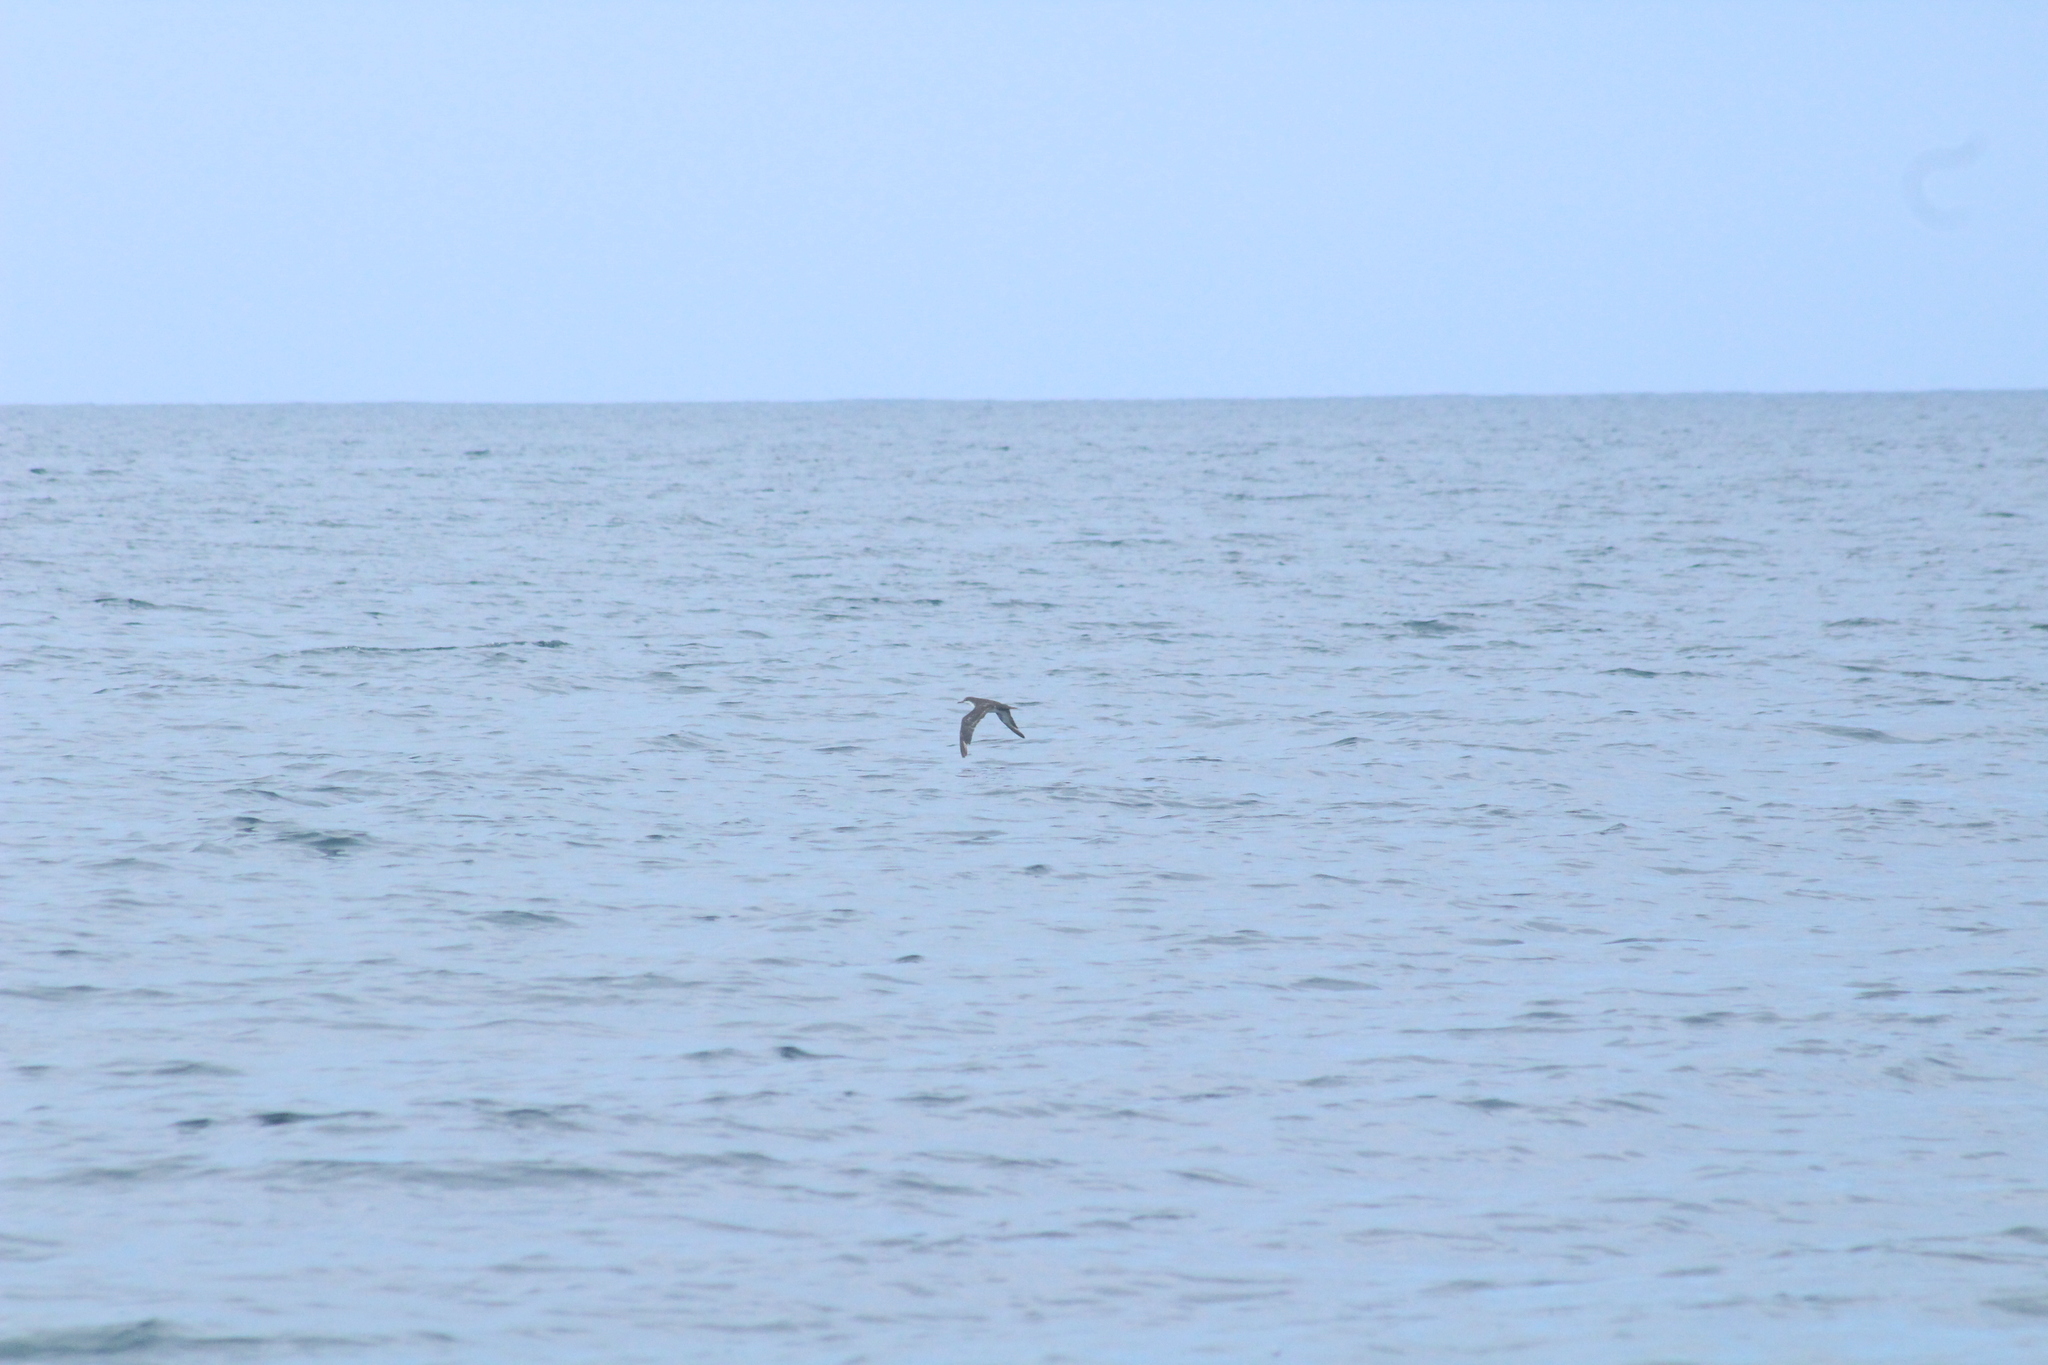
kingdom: Animalia
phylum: Chordata
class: Aves
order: Procellariiformes
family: Procellariidae
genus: Puffinus
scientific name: Puffinus subalaris
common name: Galapagos shearwater
